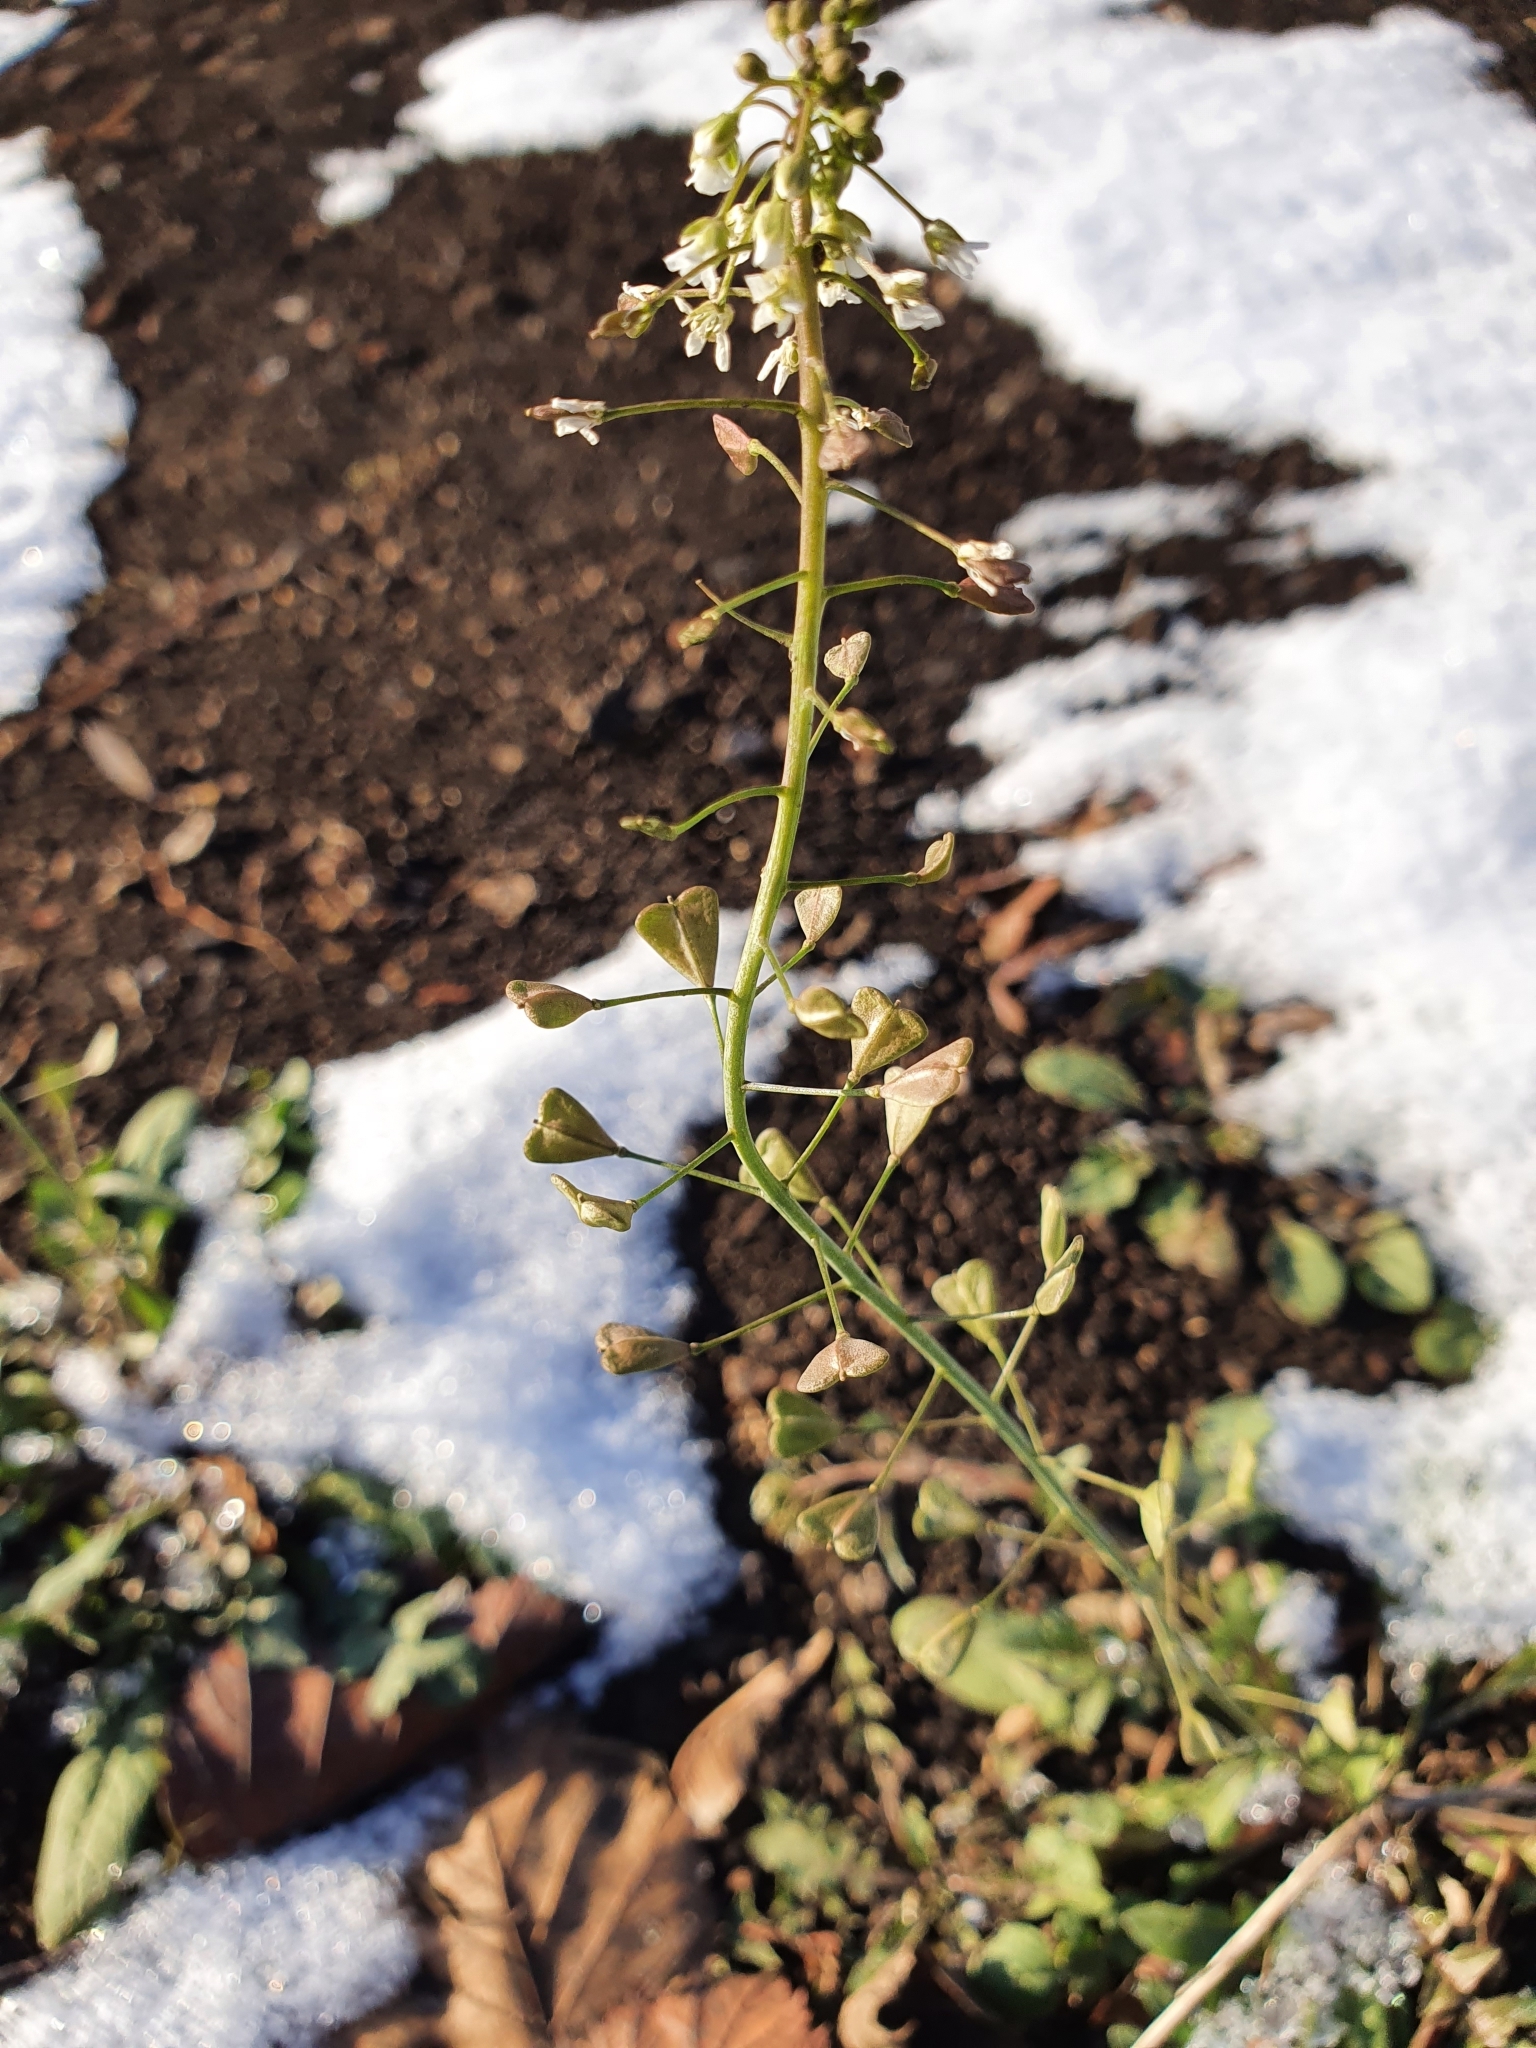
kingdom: Plantae
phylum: Tracheophyta
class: Magnoliopsida
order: Brassicales
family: Brassicaceae
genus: Capsella
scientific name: Capsella bursa-pastoris
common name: Shepherd's purse
